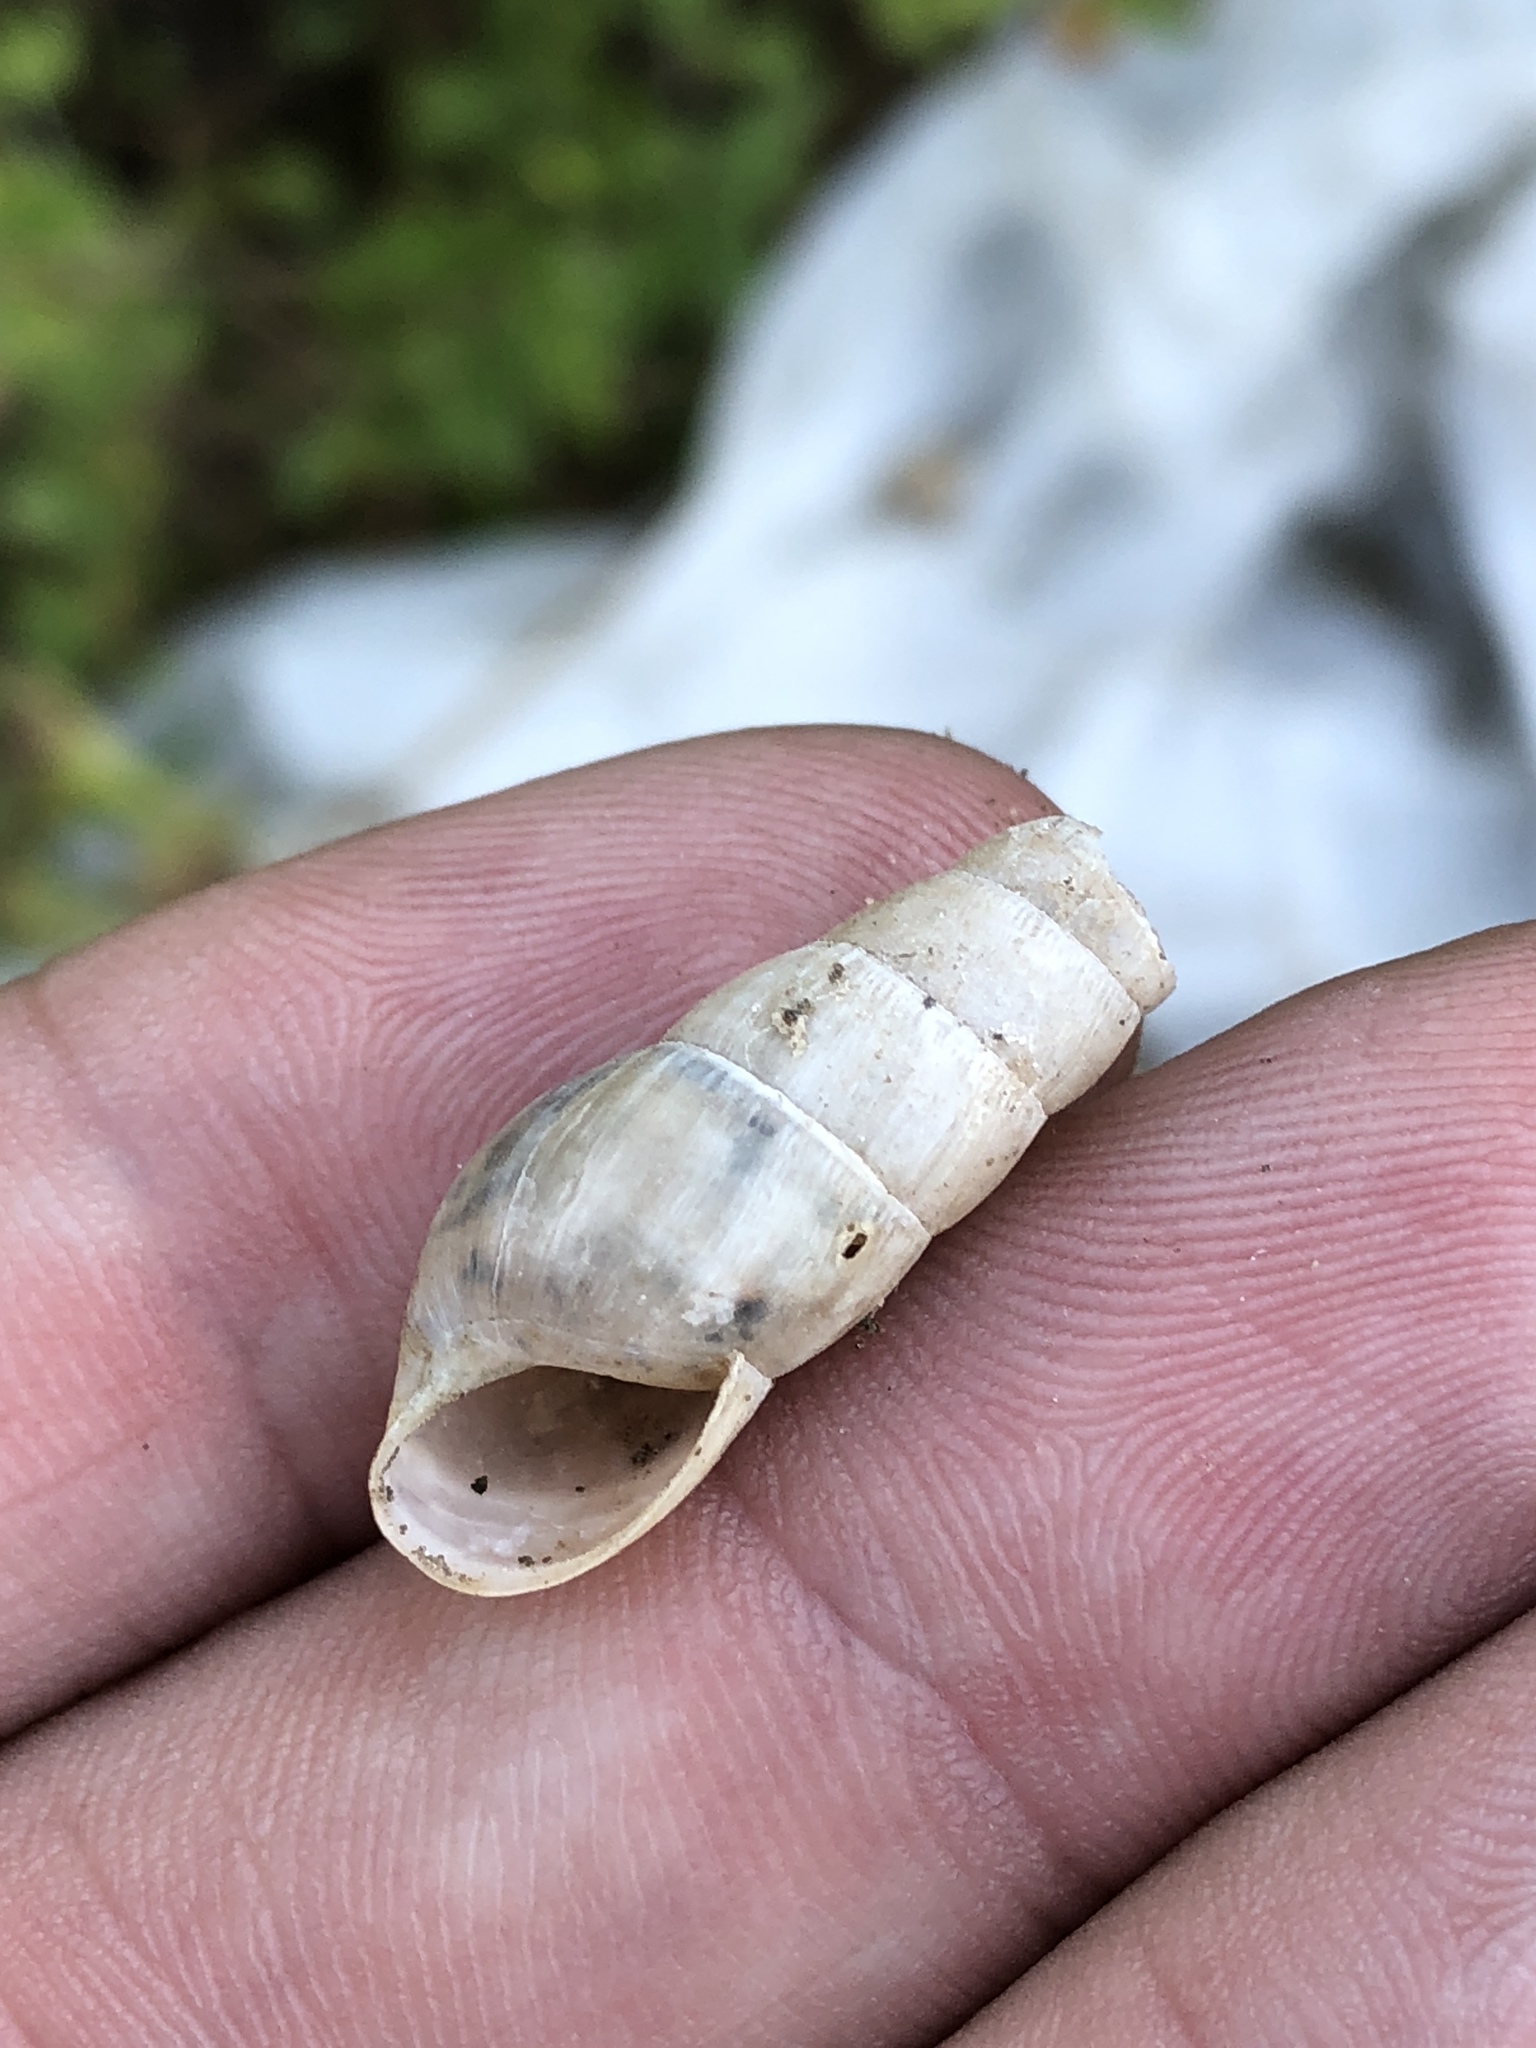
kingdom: Animalia
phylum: Mollusca
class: Gastropoda
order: Stylommatophora
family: Achatinidae
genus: Rumina
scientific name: Rumina decollata
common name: Decollate snail
